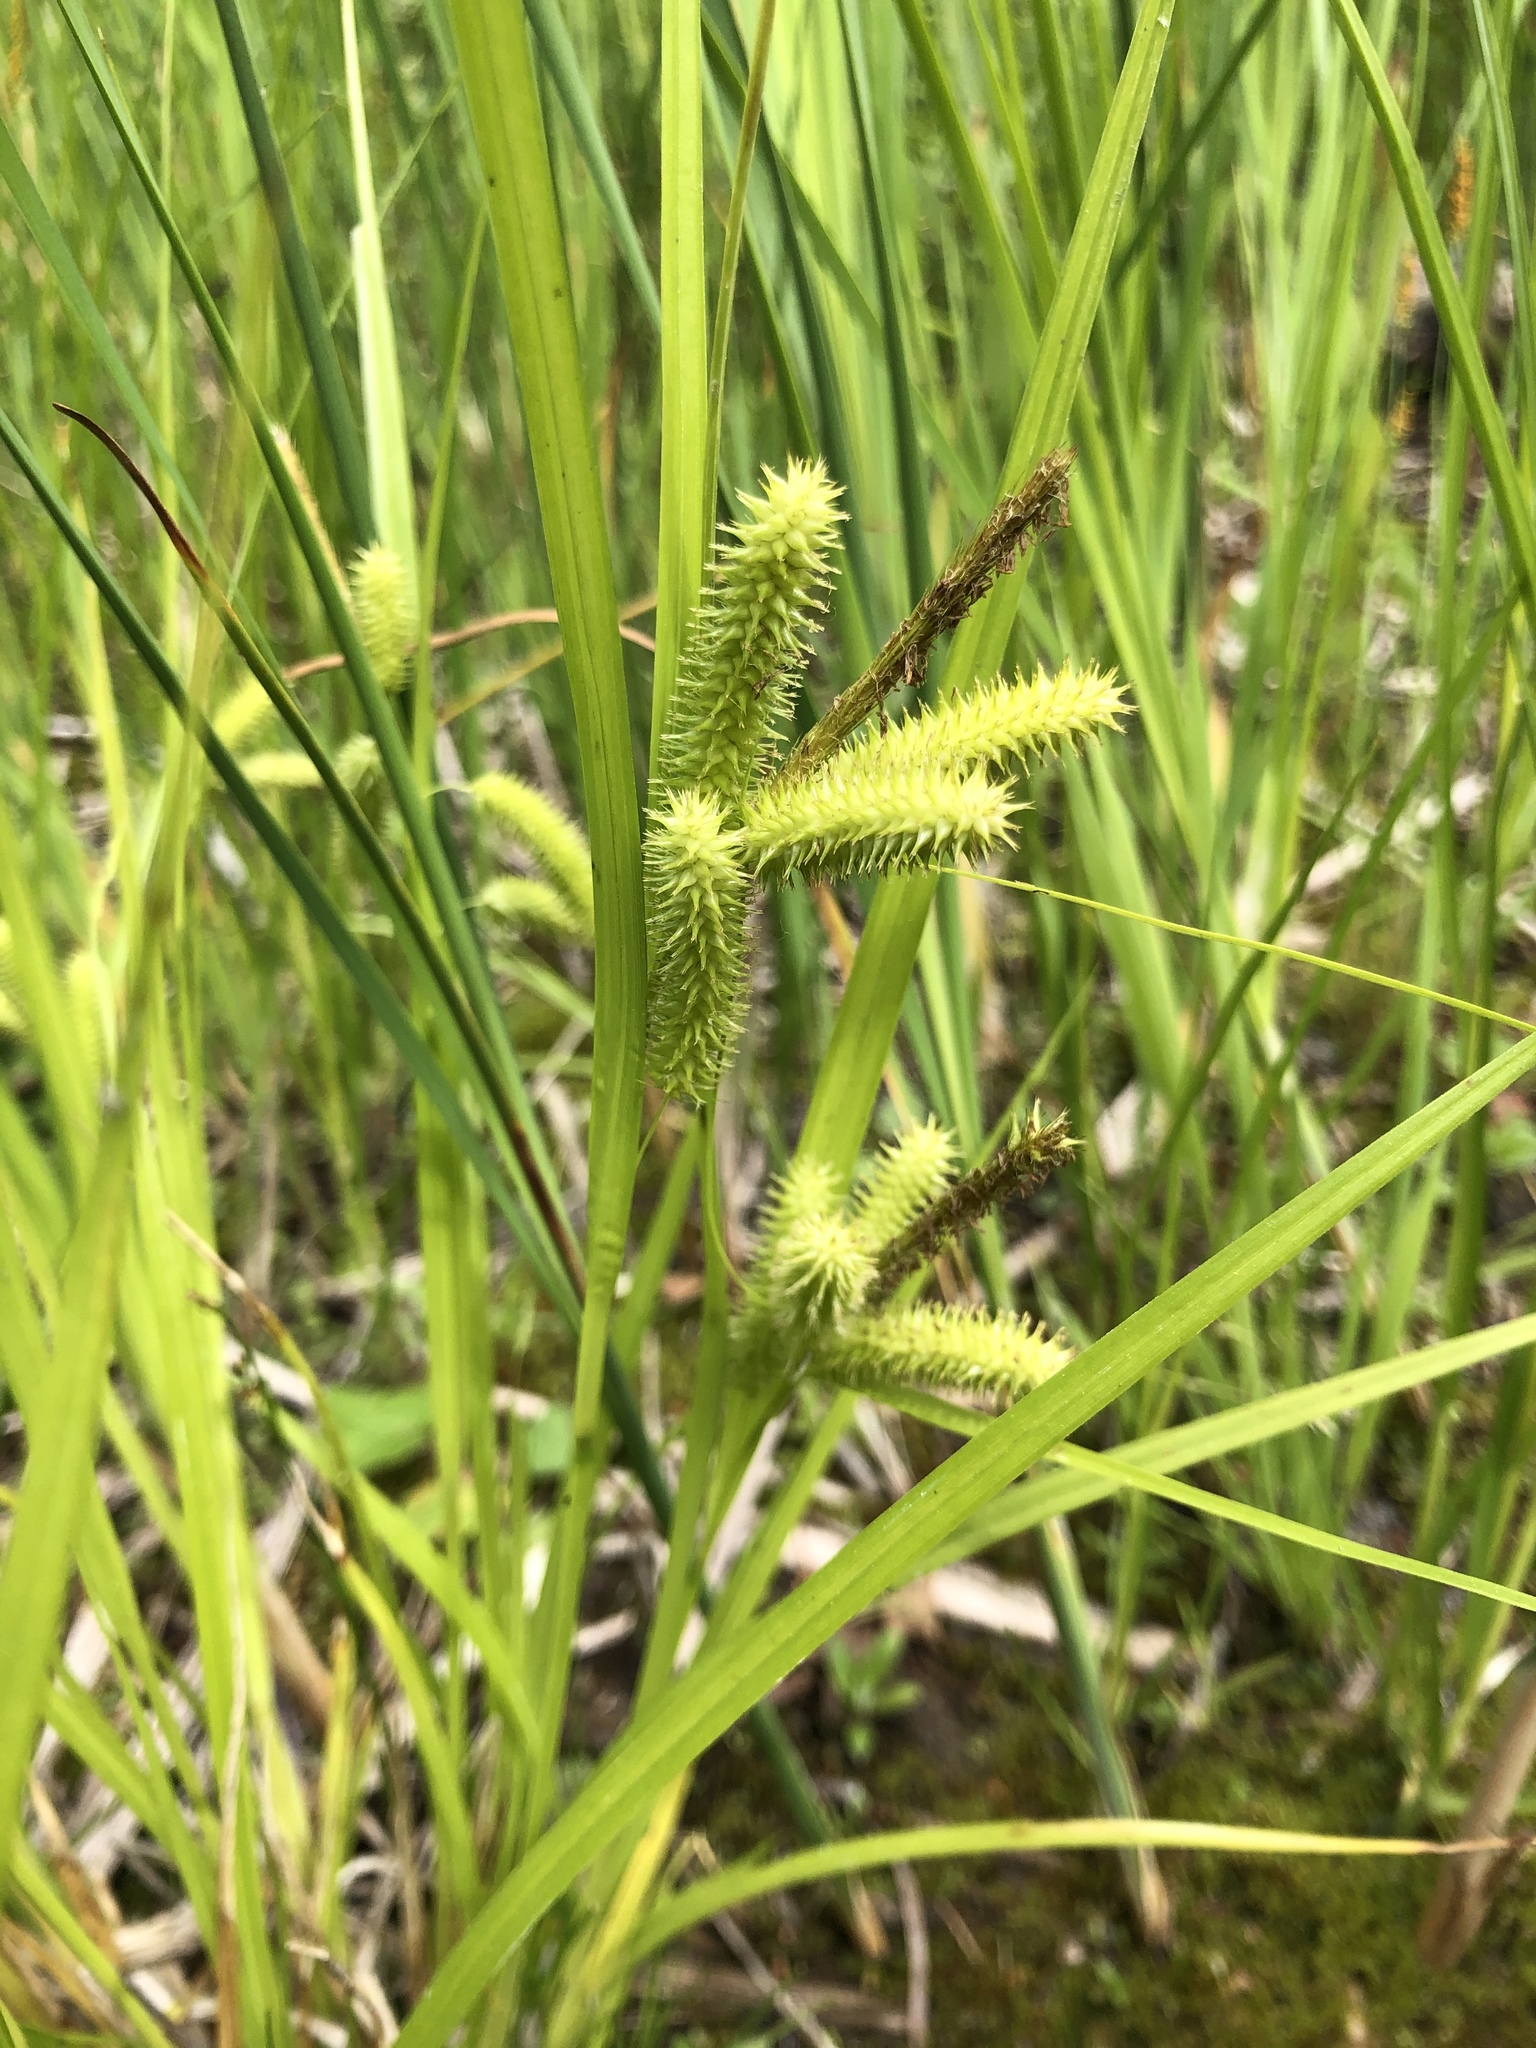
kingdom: Plantae
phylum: Tracheophyta
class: Liliopsida
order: Poales
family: Cyperaceae
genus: Carex
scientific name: Carex pseudocyperus
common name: Cyperus sedge
